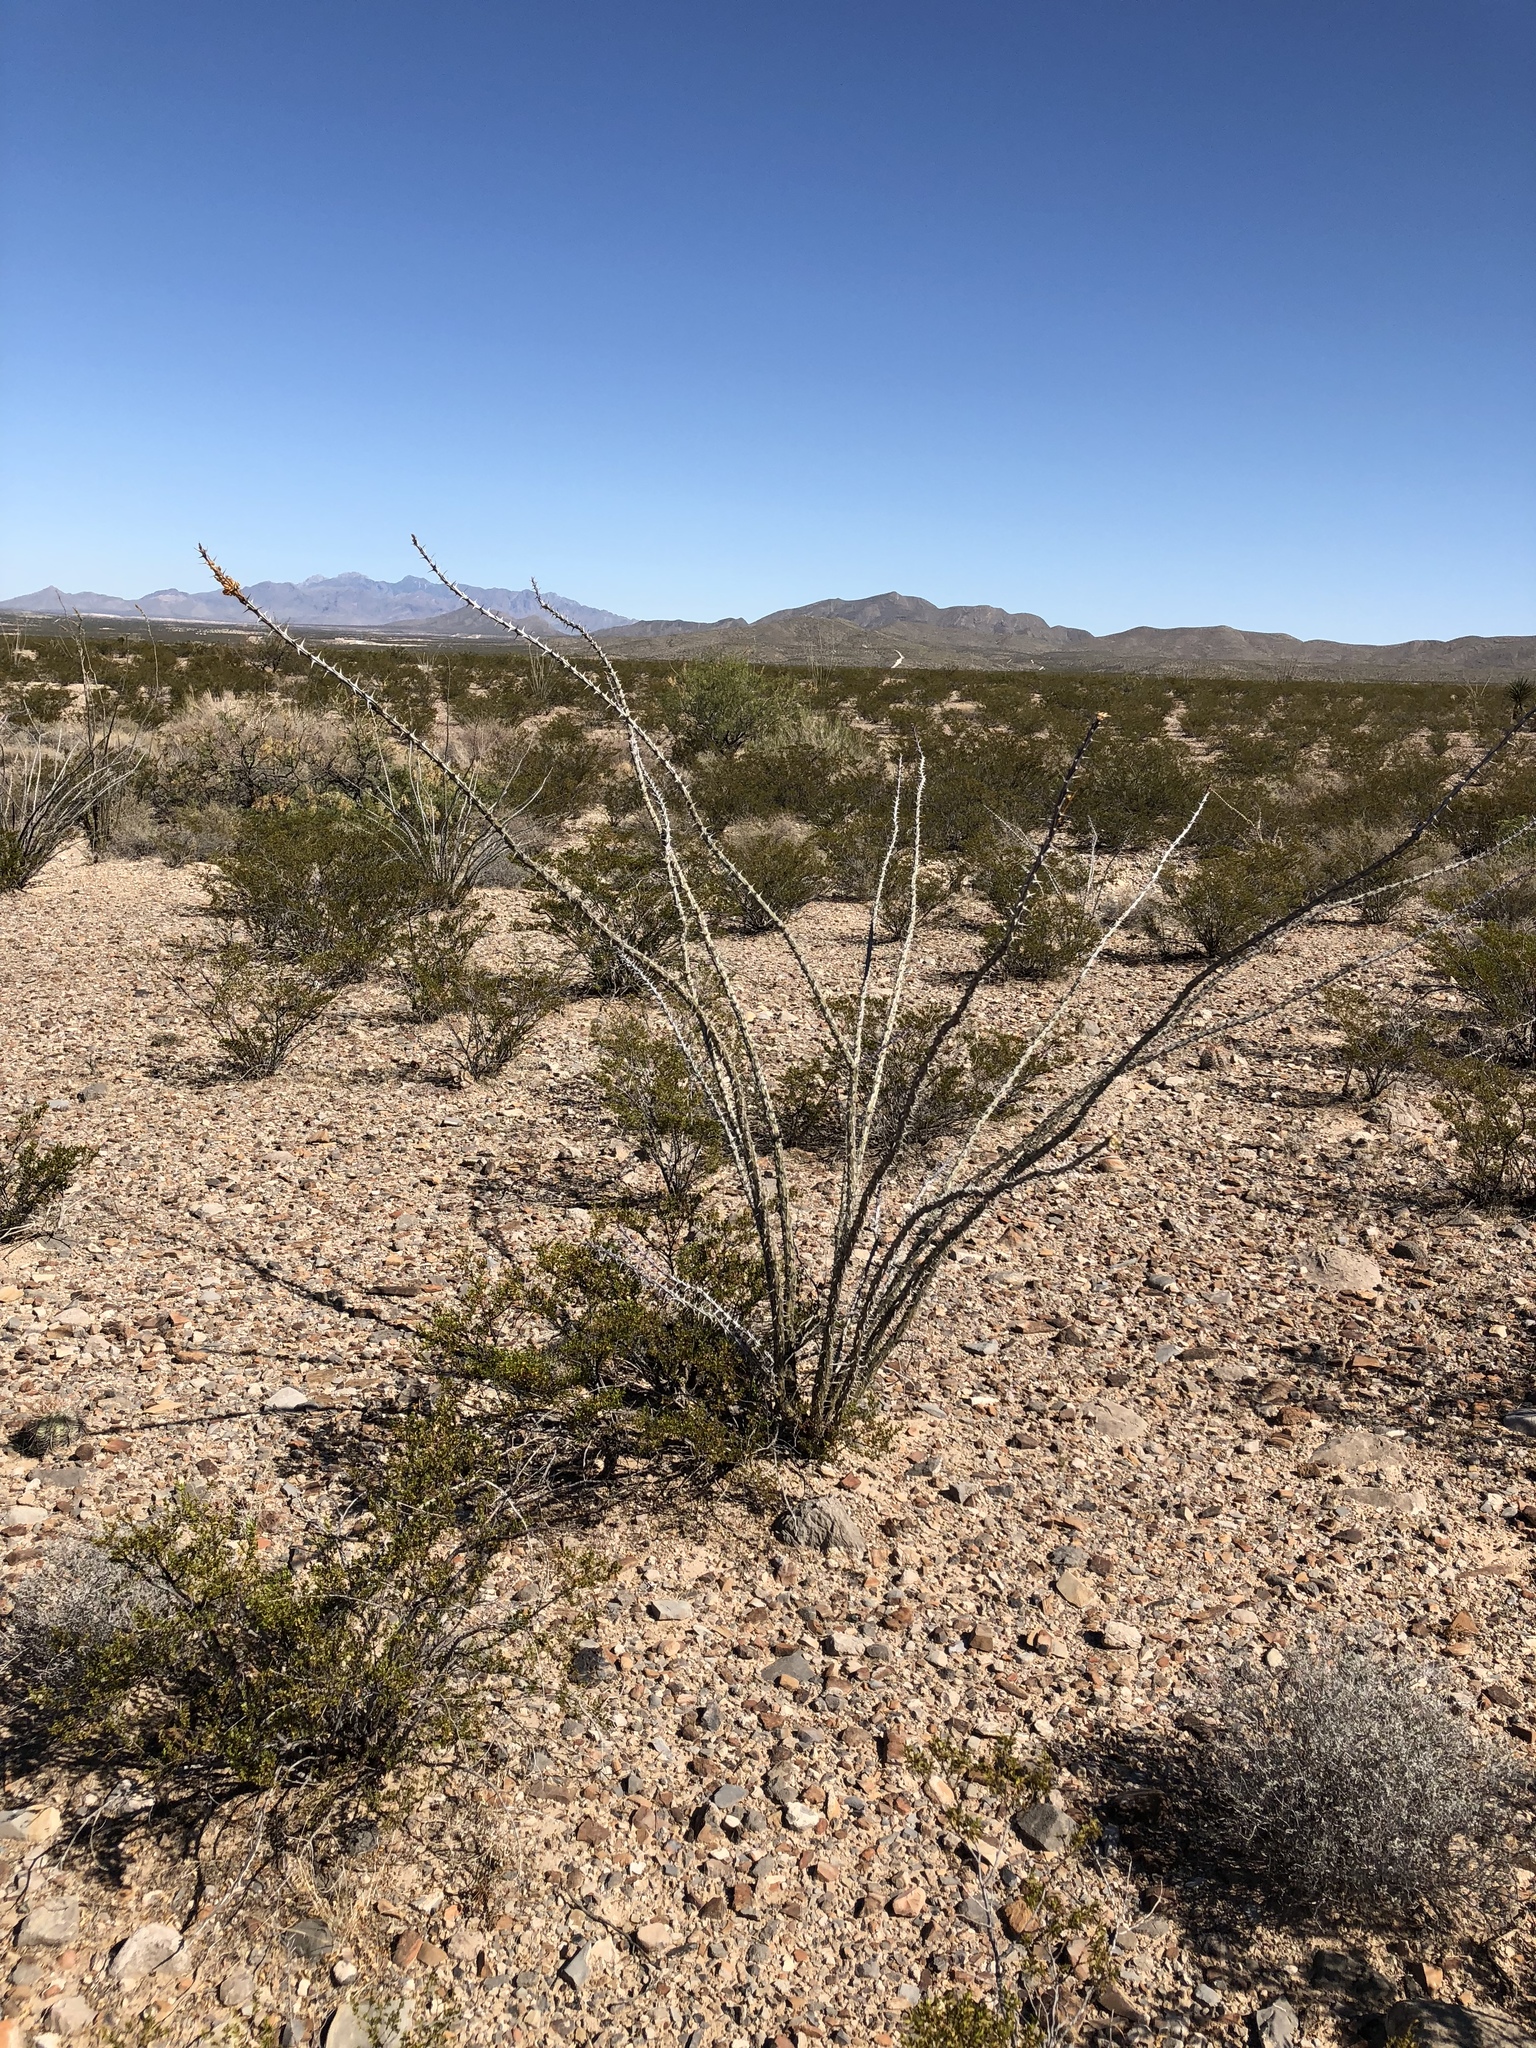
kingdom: Plantae
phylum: Tracheophyta
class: Magnoliopsida
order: Ericales
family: Fouquieriaceae
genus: Fouquieria
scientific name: Fouquieria splendens
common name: Vine-cactus
